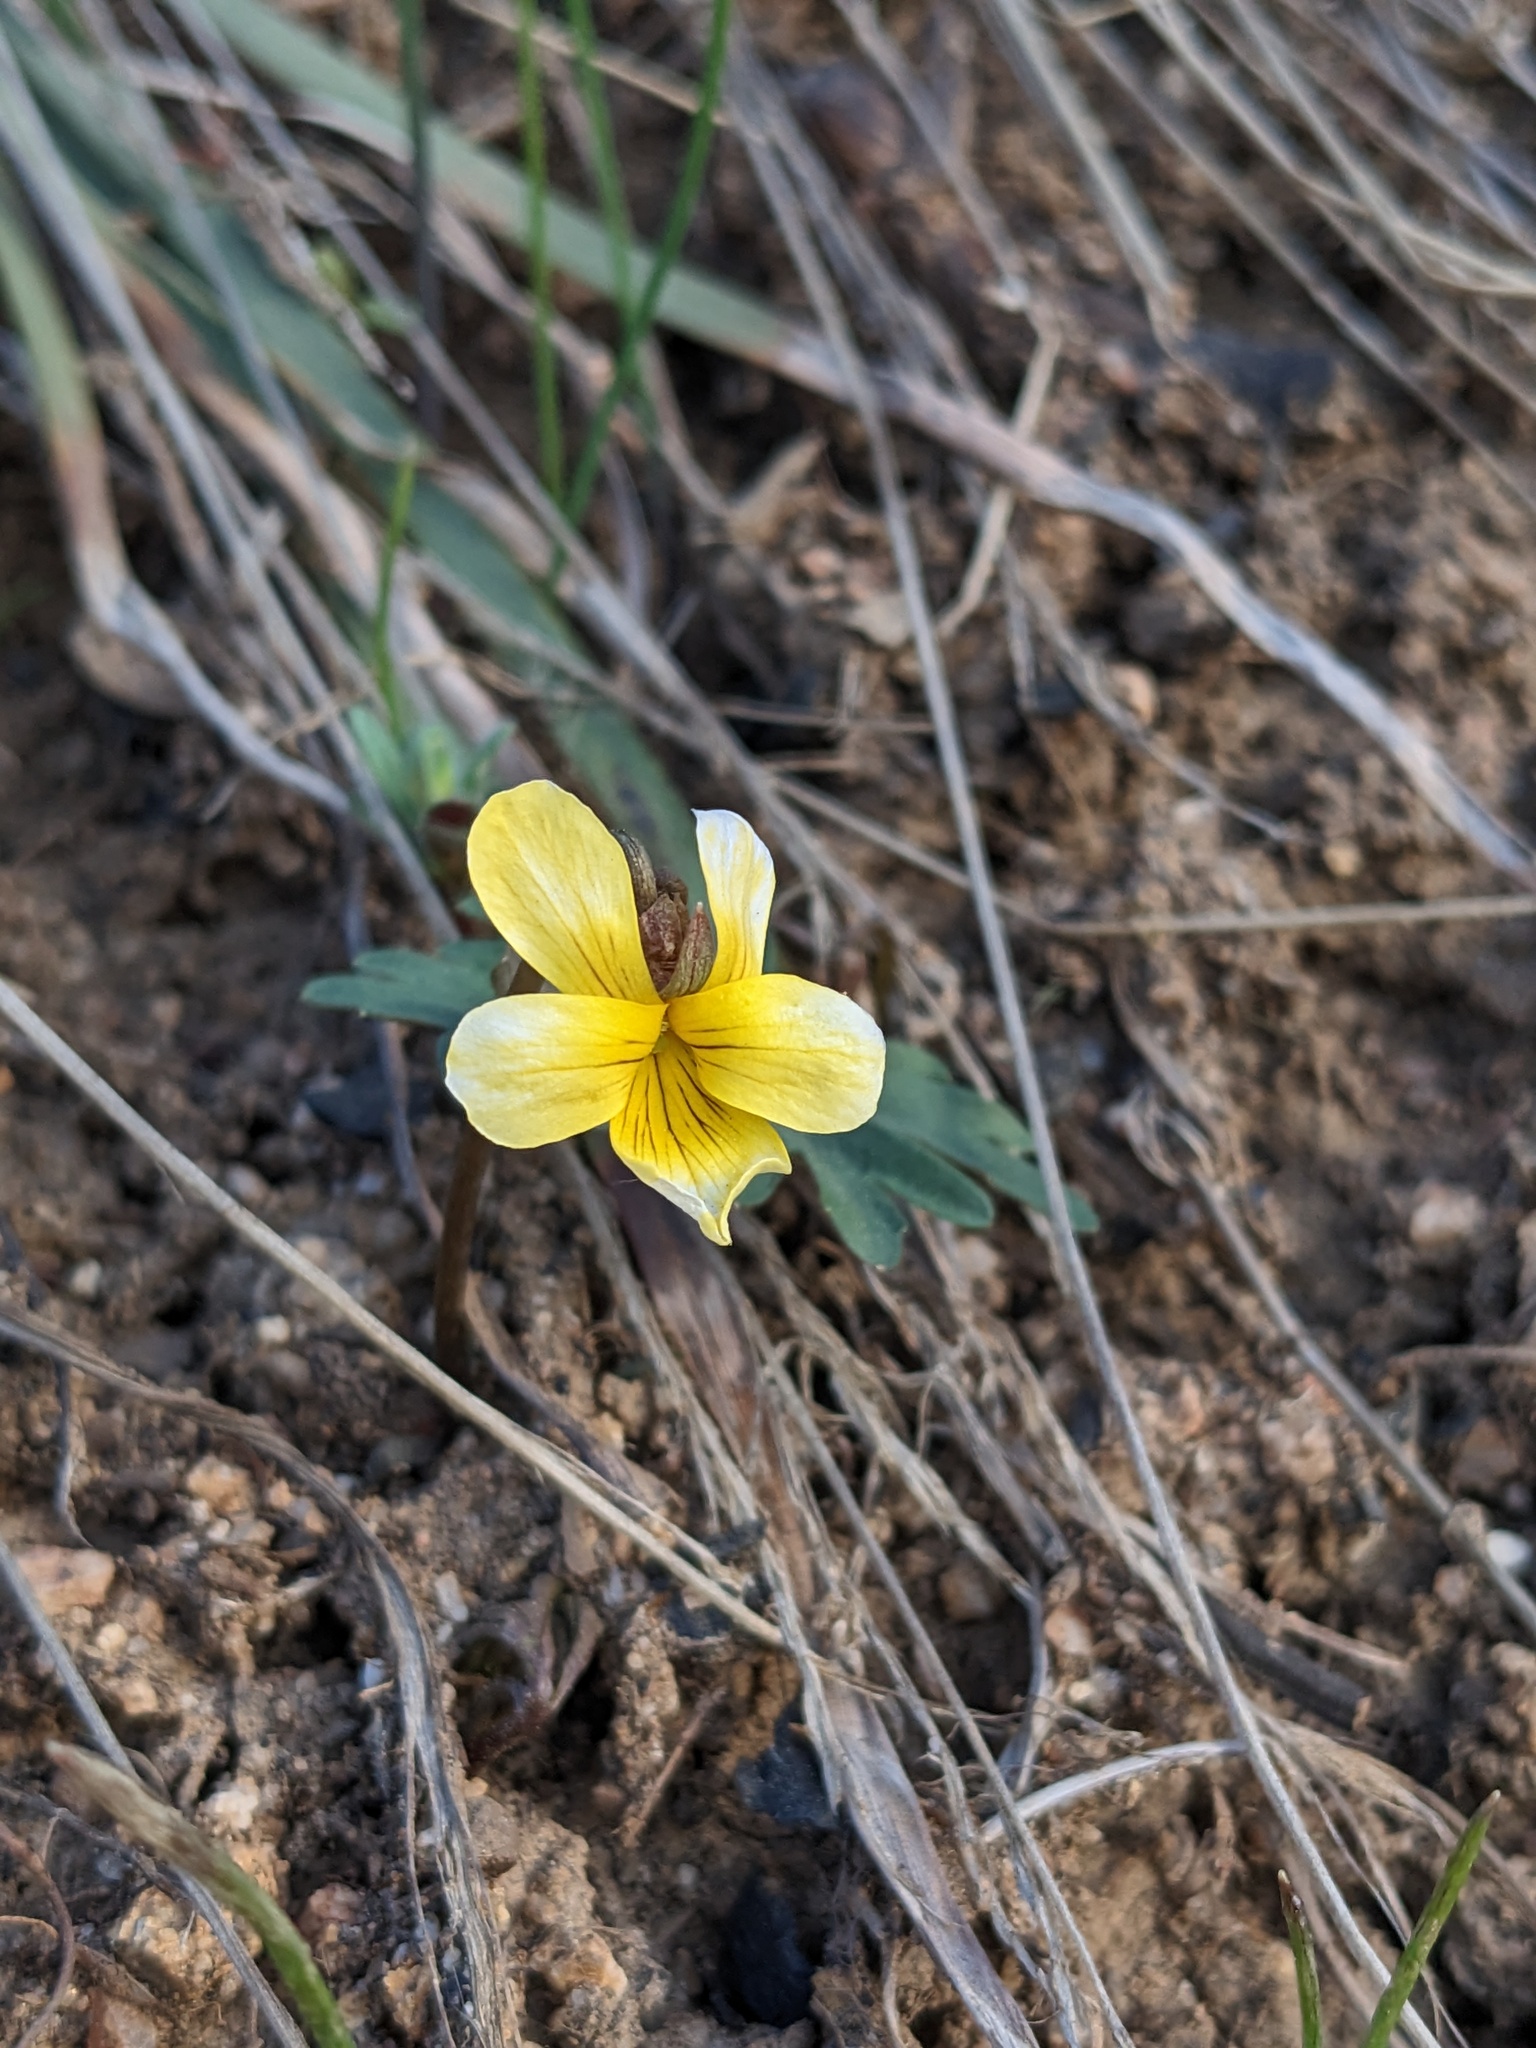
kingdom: Plantae
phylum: Tracheophyta
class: Magnoliopsida
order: Malpighiales
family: Violaceae
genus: Viola
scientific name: Viola sheltonii
